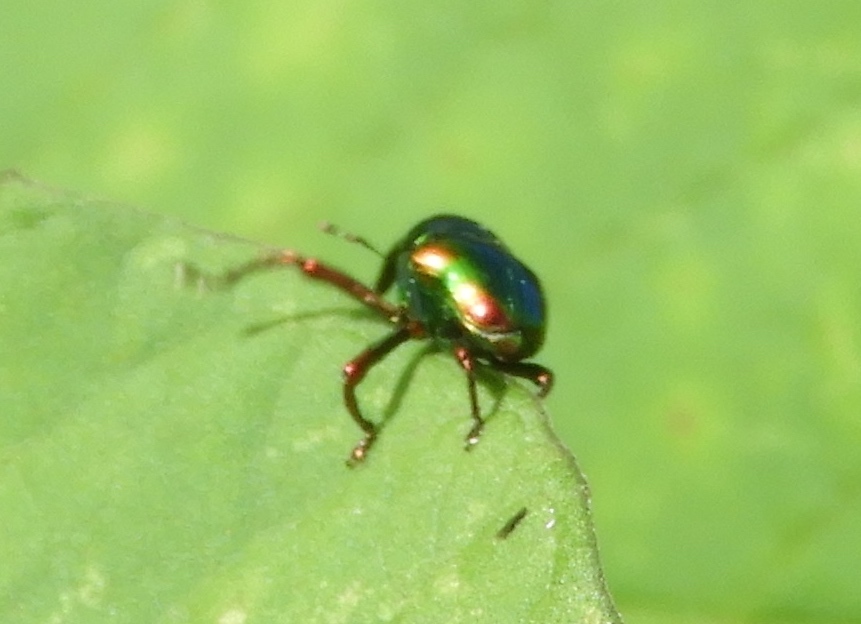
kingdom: Animalia
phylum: Arthropoda
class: Insecta
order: Coleoptera
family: Eurhynchidae
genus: Eurhinus
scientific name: Eurhinus magnificus
